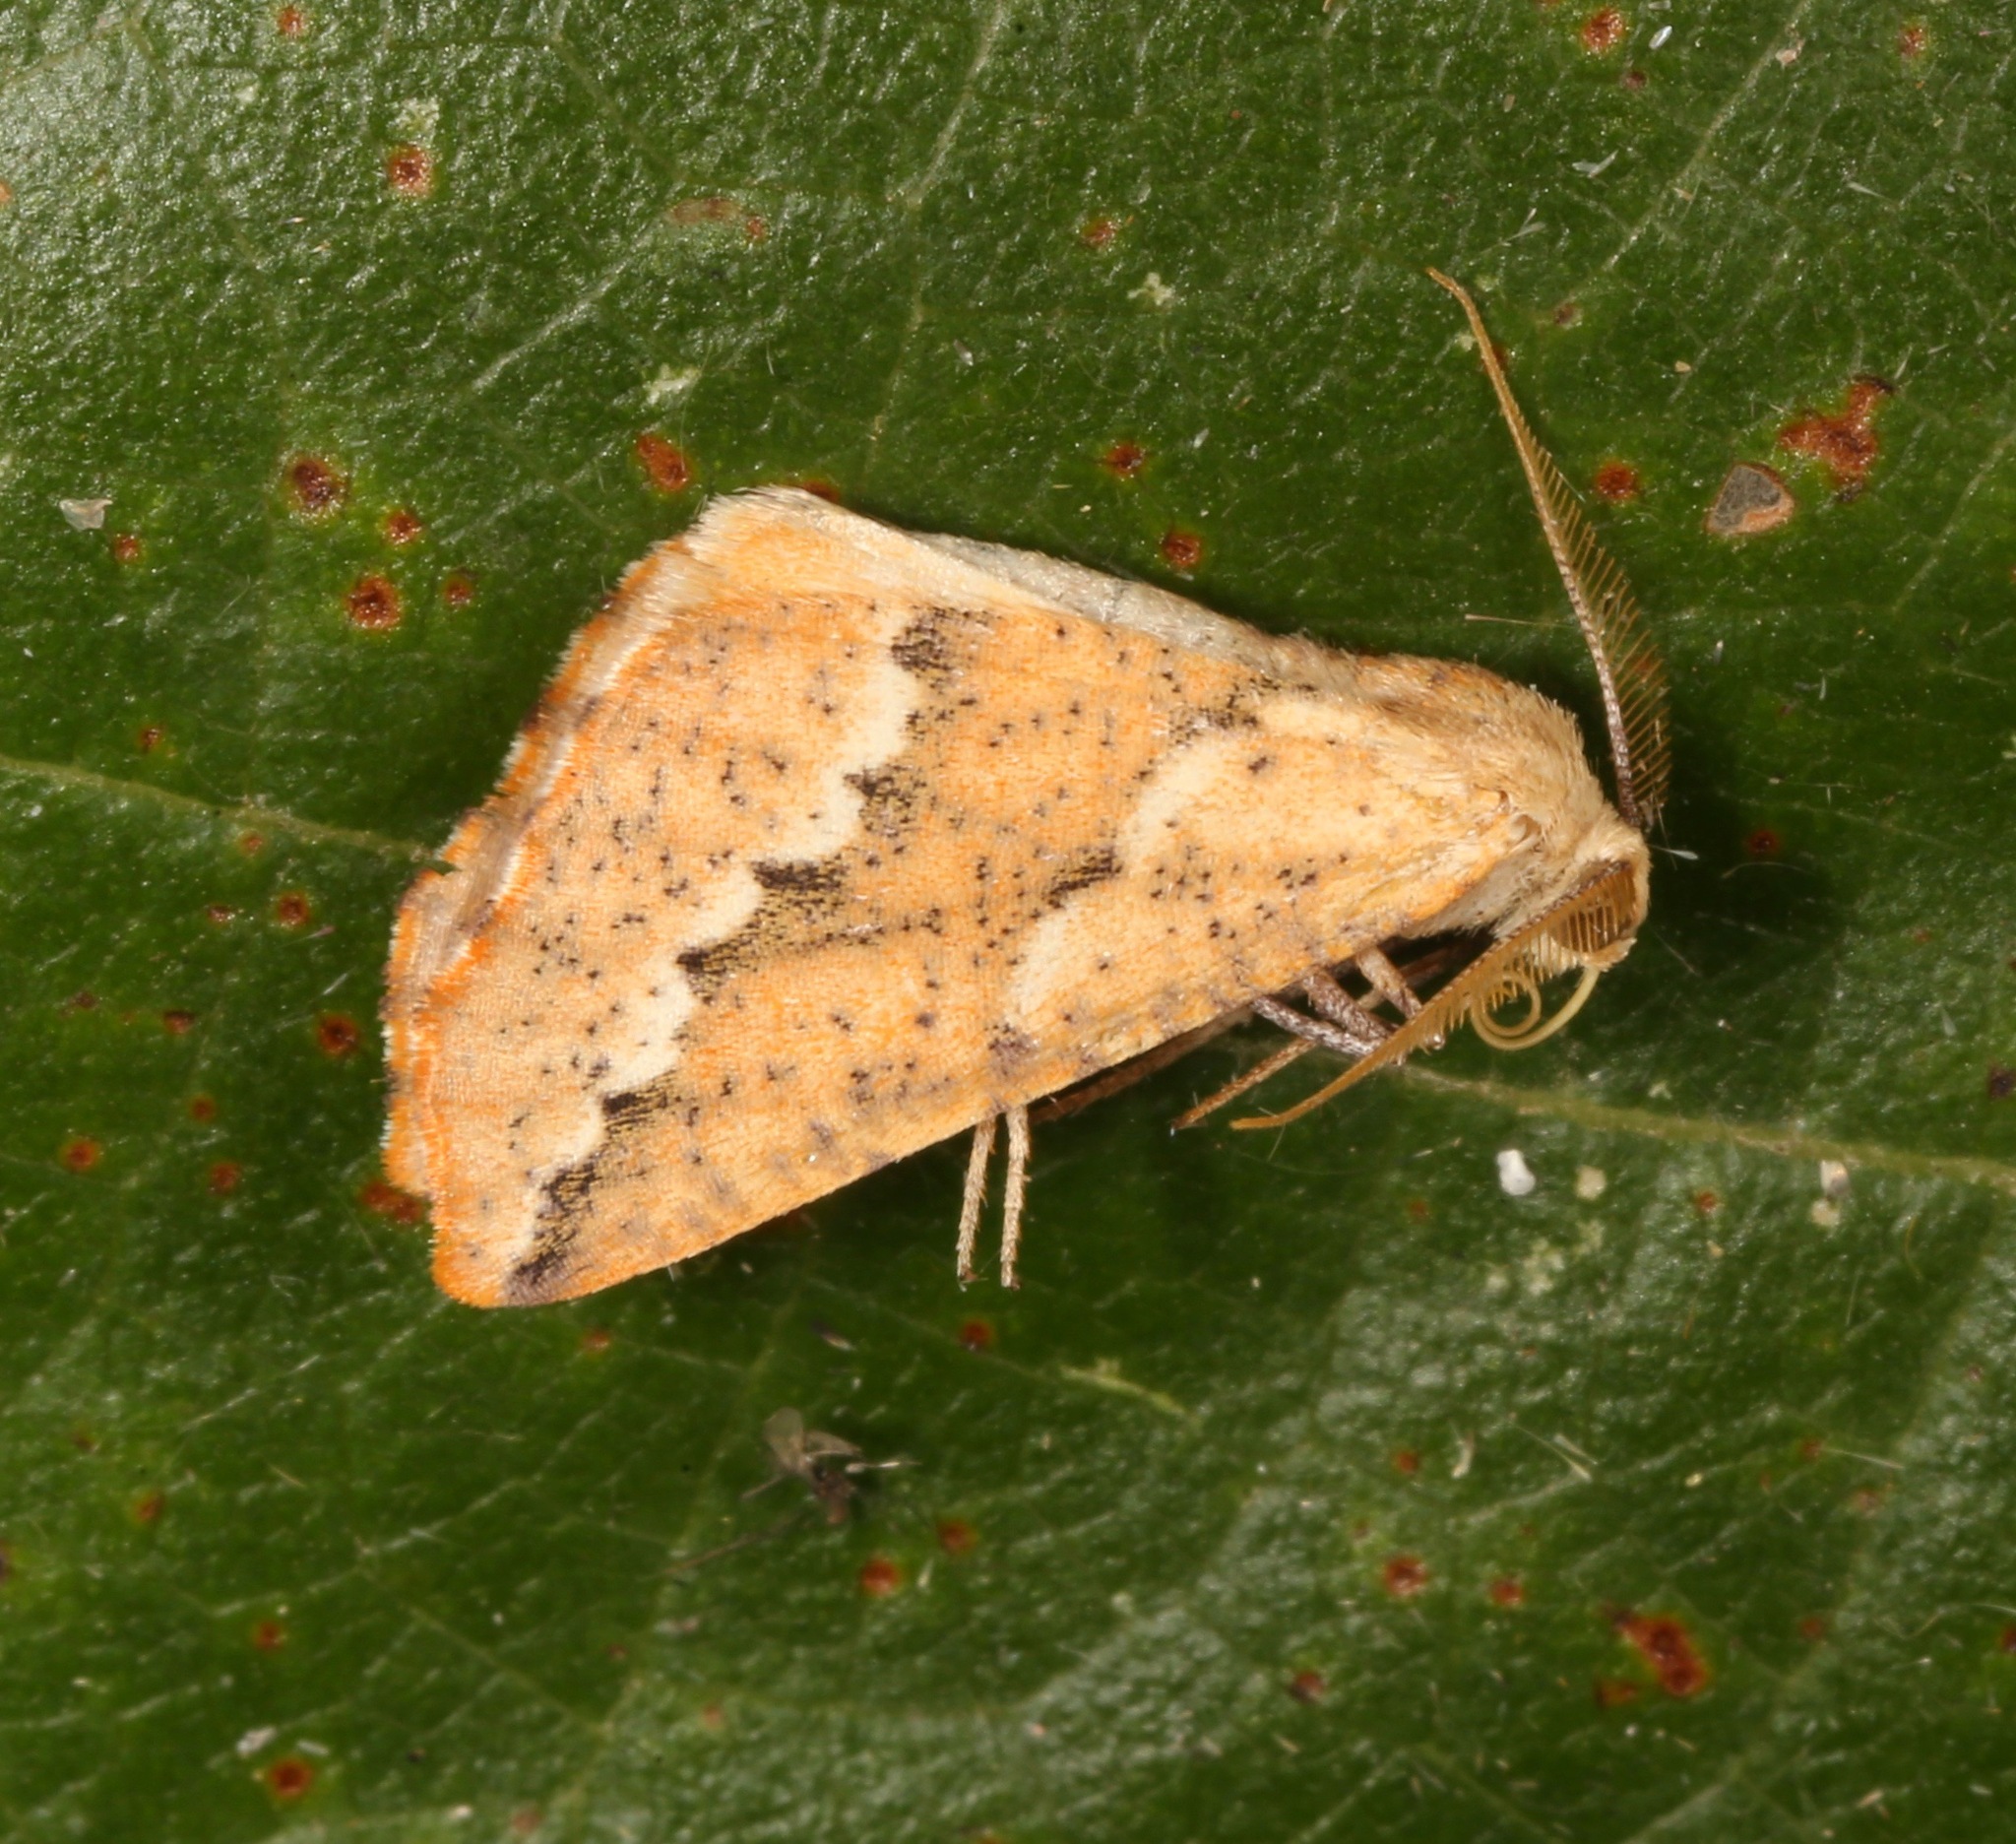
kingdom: Animalia
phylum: Arthropoda
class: Insecta
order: Lepidoptera
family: Geometridae
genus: Sicya
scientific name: Sicya morsicaria
